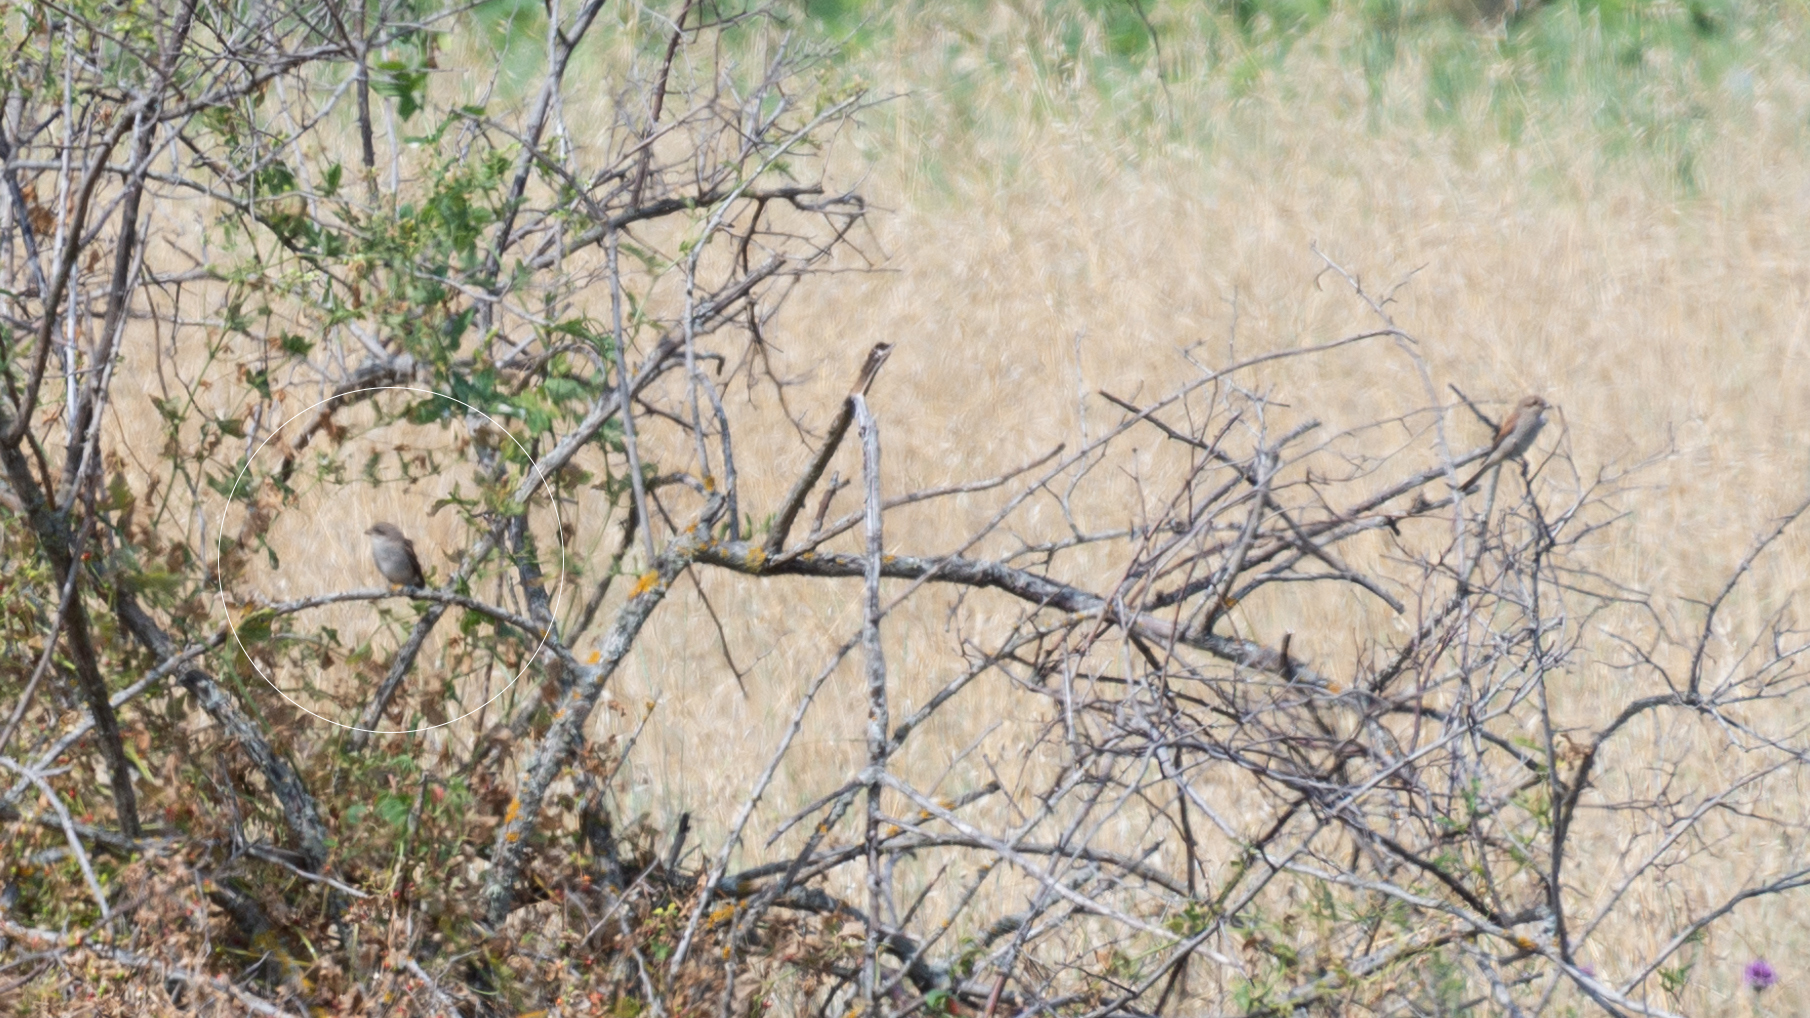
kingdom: Animalia
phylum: Chordata
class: Aves
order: Passeriformes
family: Laniidae
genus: Lanius
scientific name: Lanius collurio
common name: Red-backed shrike
